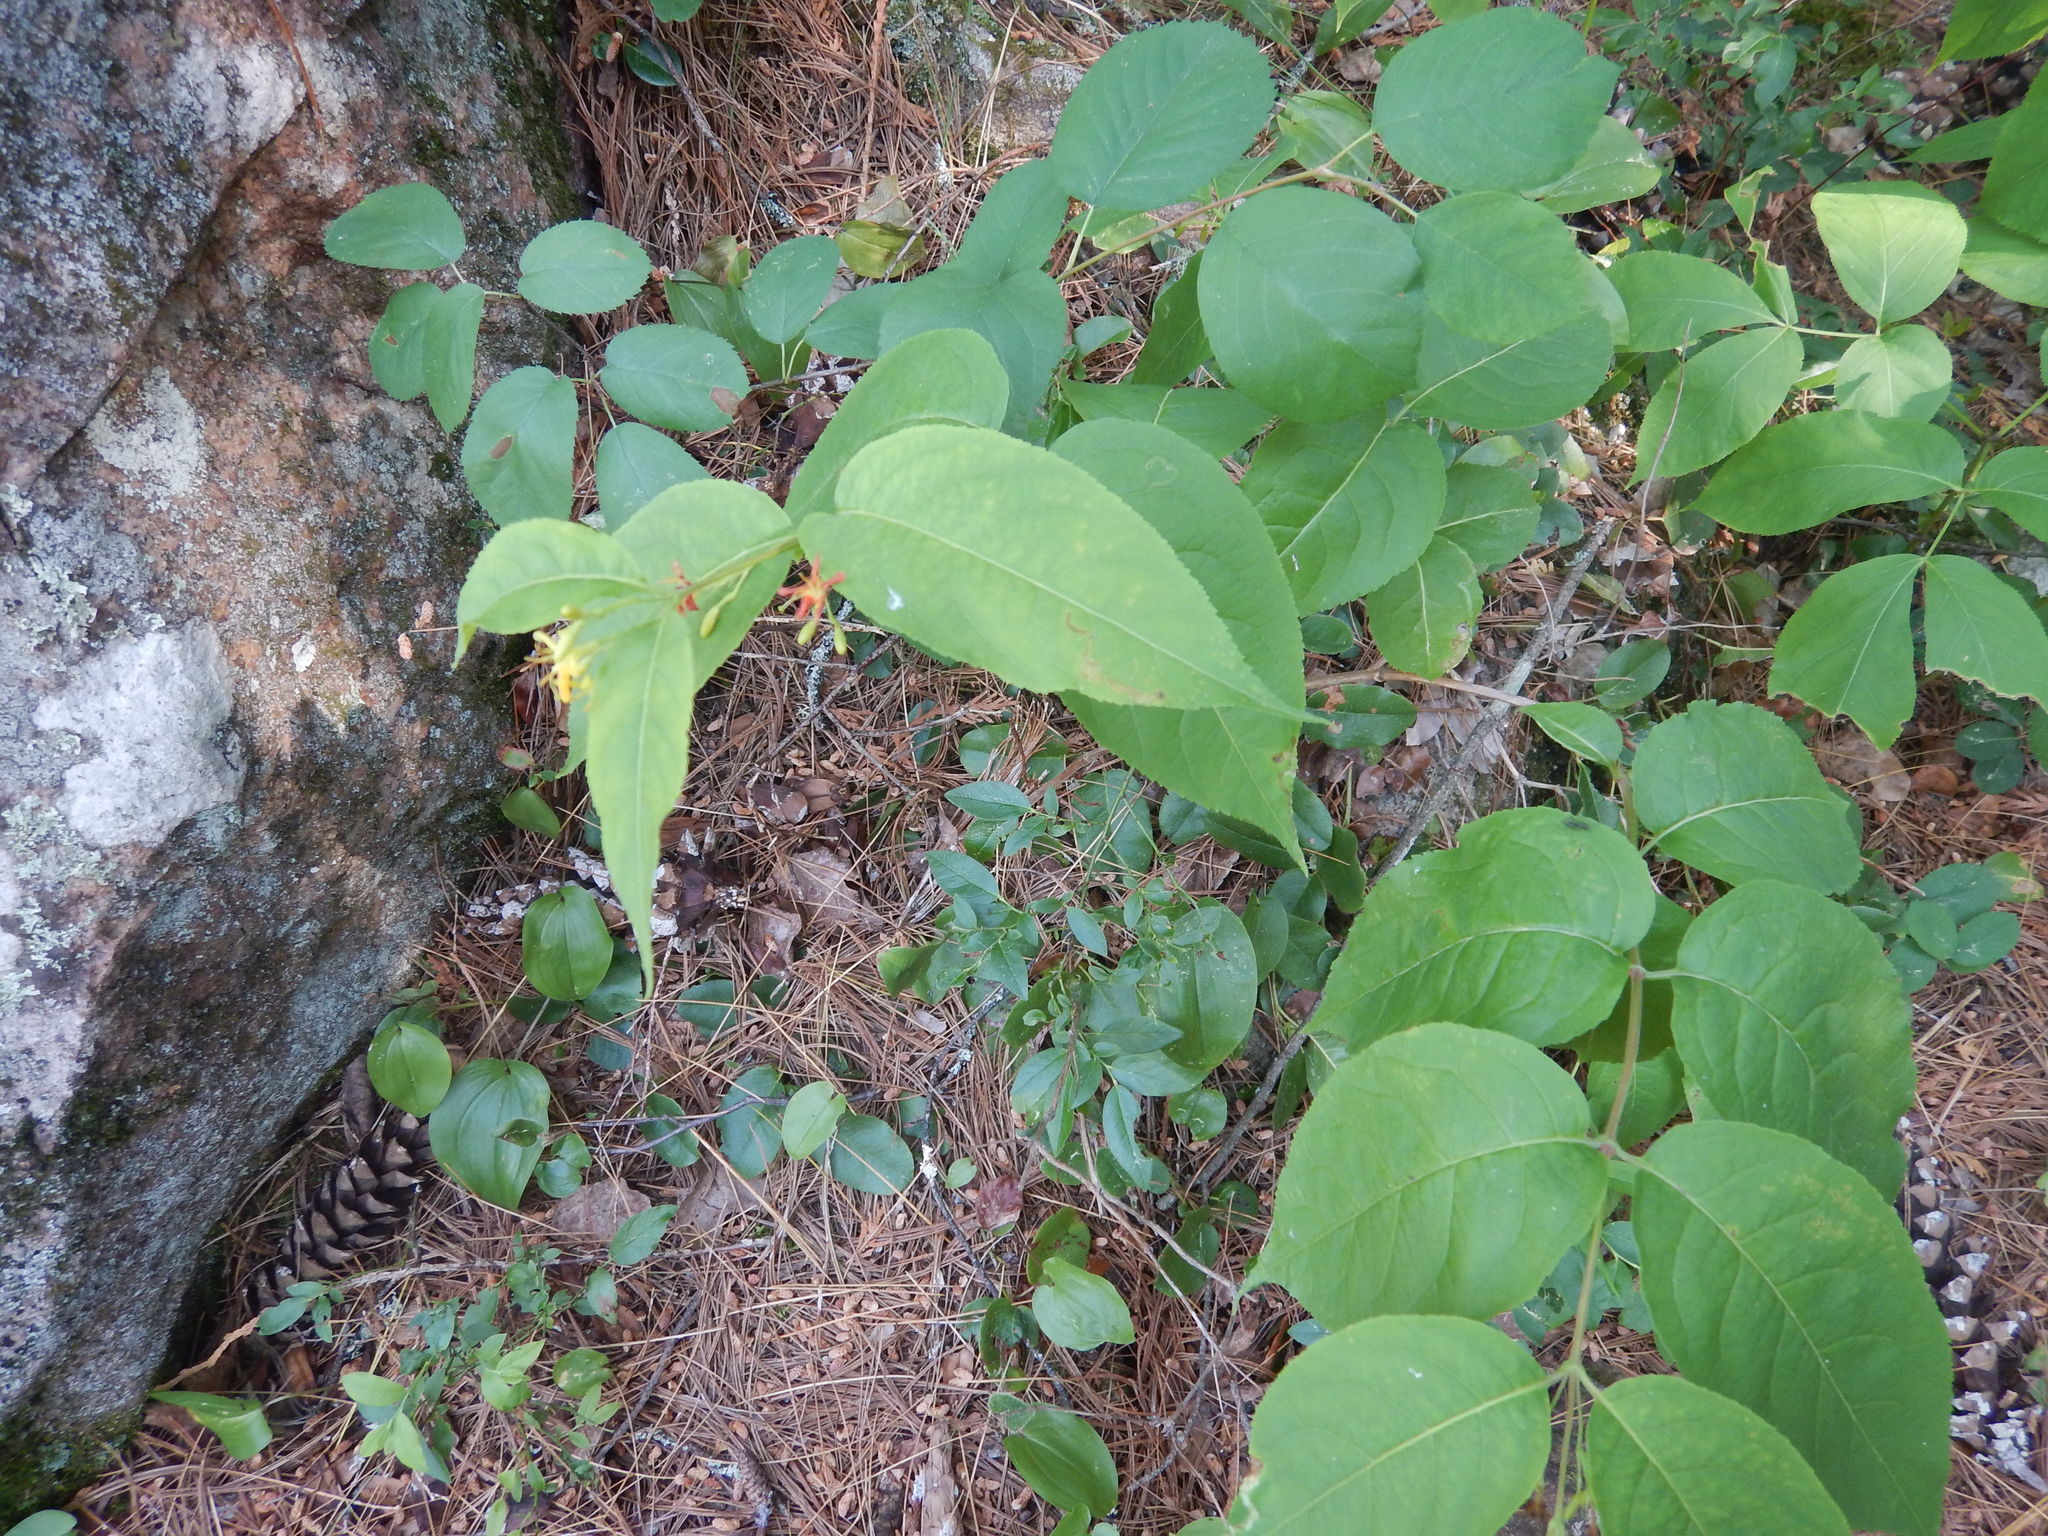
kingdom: Plantae
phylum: Tracheophyta
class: Magnoliopsida
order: Dipsacales
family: Caprifoliaceae
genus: Diervilla
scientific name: Diervilla lonicera
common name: Bush-honeysuckle
